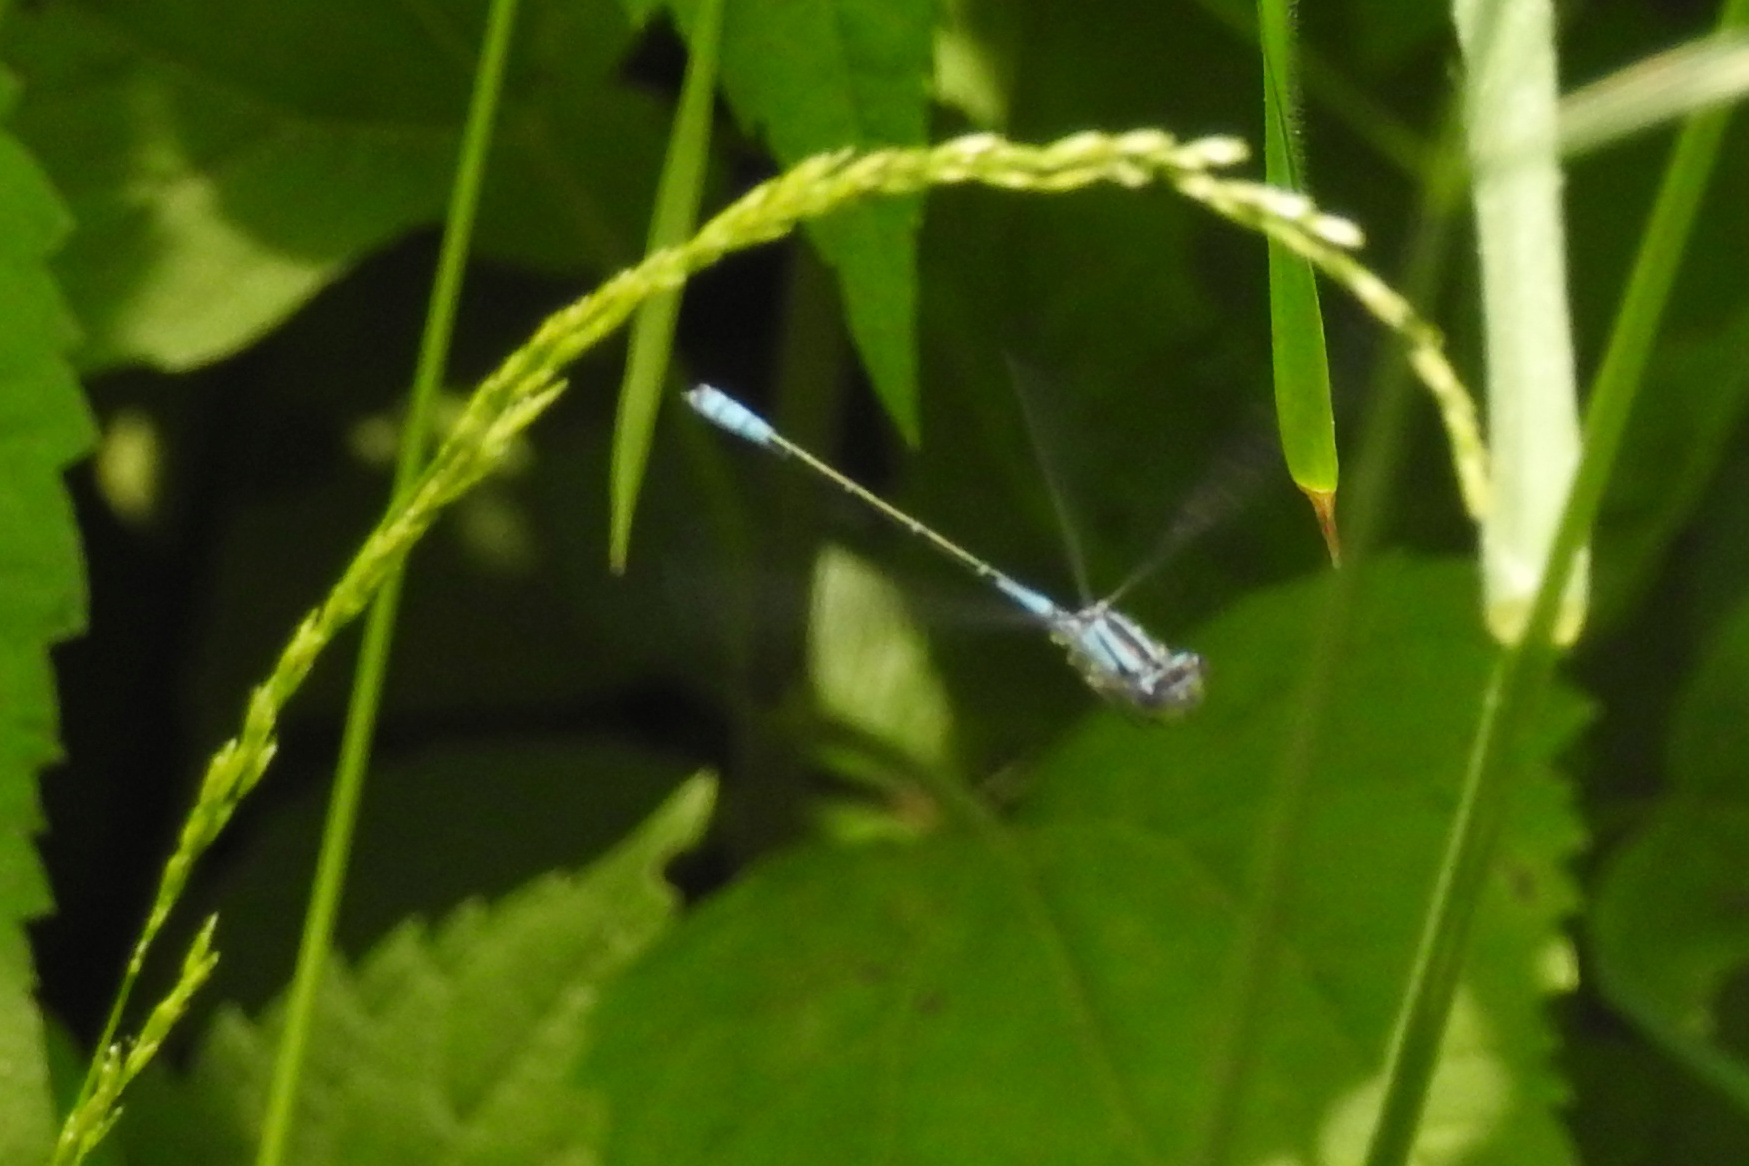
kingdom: Animalia
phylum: Arthropoda
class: Insecta
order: Odonata
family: Coenagrionidae
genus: Enallagma
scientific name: Enallagma aspersum
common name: Azure bluet
